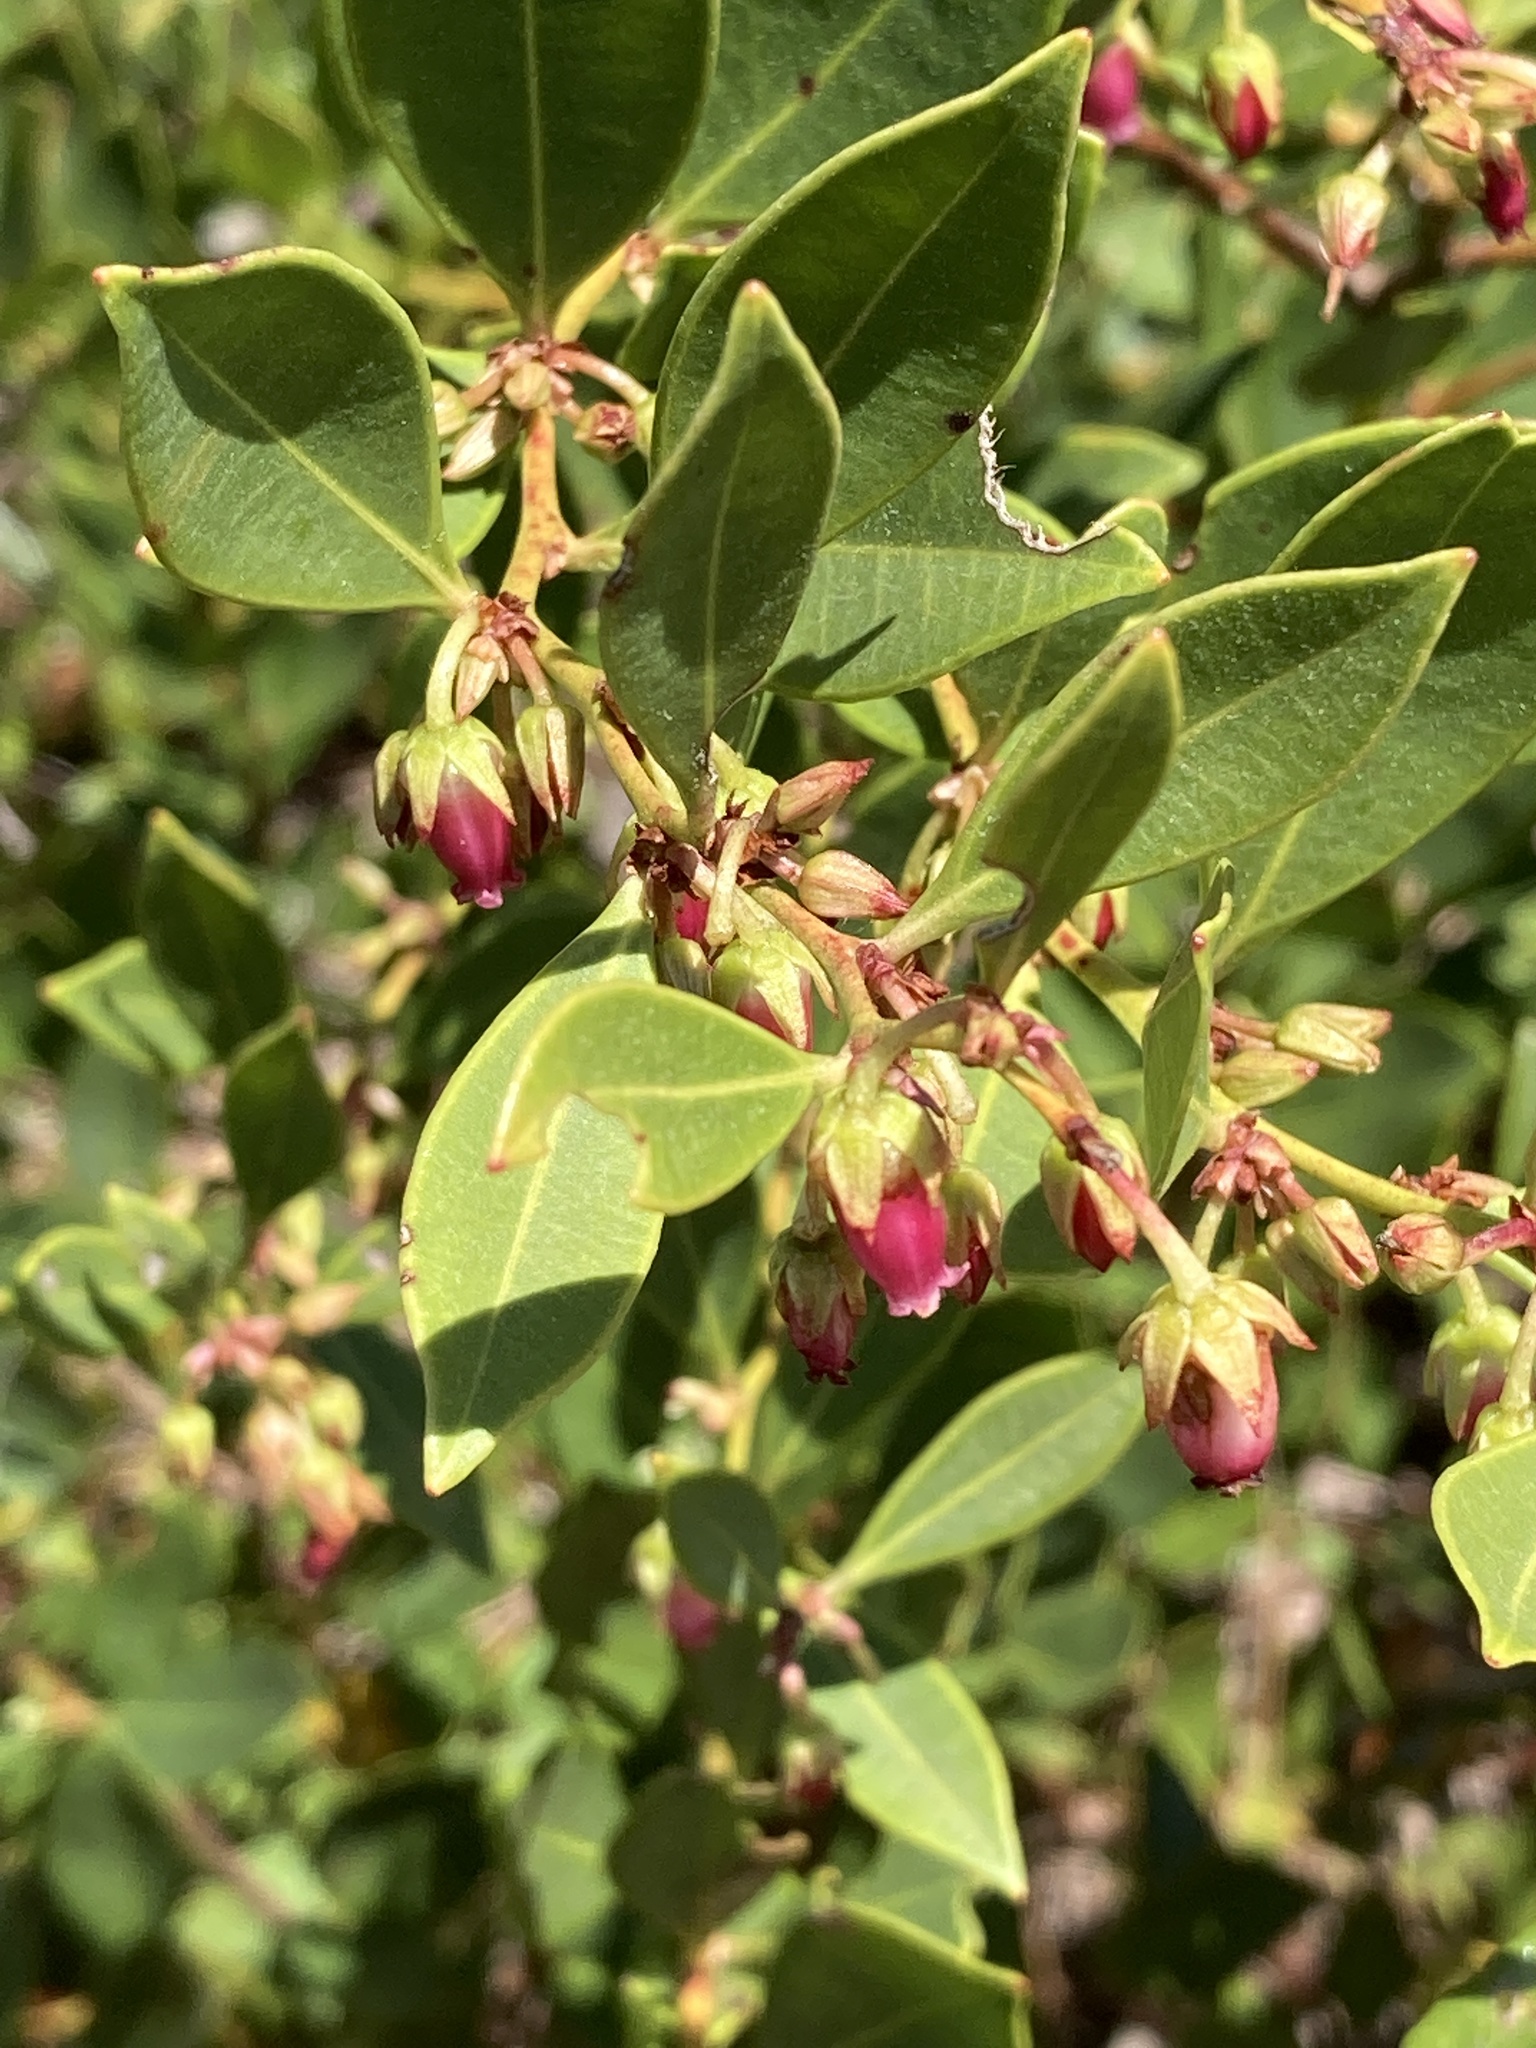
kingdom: Plantae
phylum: Tracheophyta
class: Magnoliopsida
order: Ericales
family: Ericaceae
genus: Lyonia
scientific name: Lyonia lucida
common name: Fetterbush
